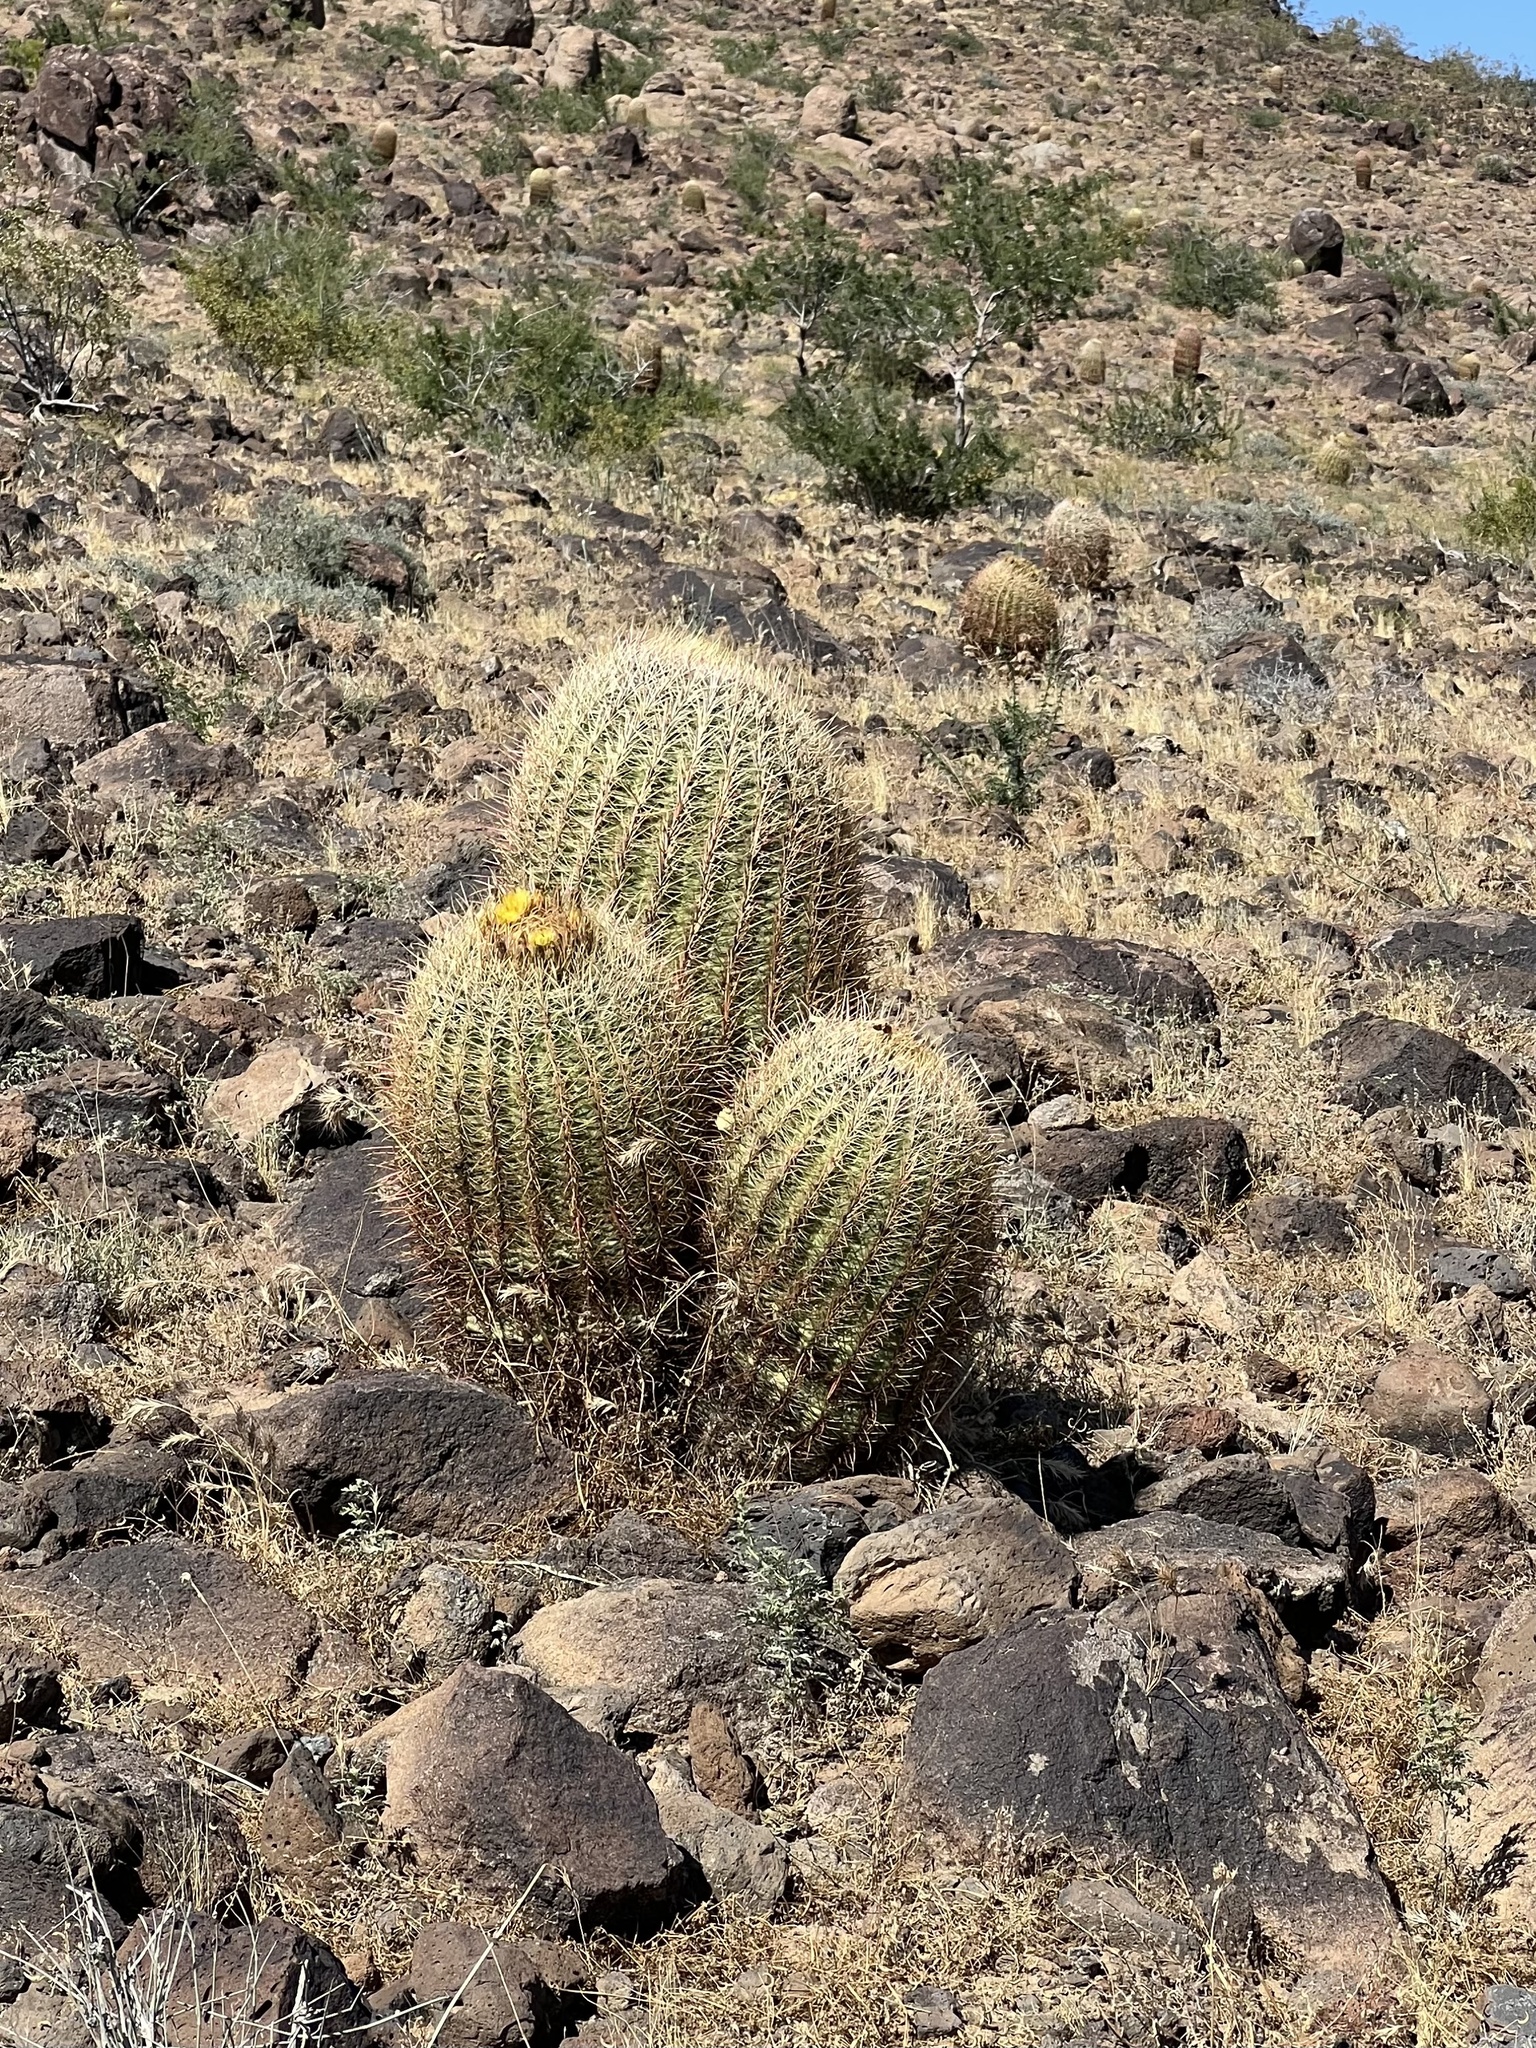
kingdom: Plantae
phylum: Tracheophyta
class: Magnoliopsida
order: Caryophyllales
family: Cactaceae
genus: Ferocactus
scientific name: Ferocactus cylindraceus
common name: California barrel cactus
